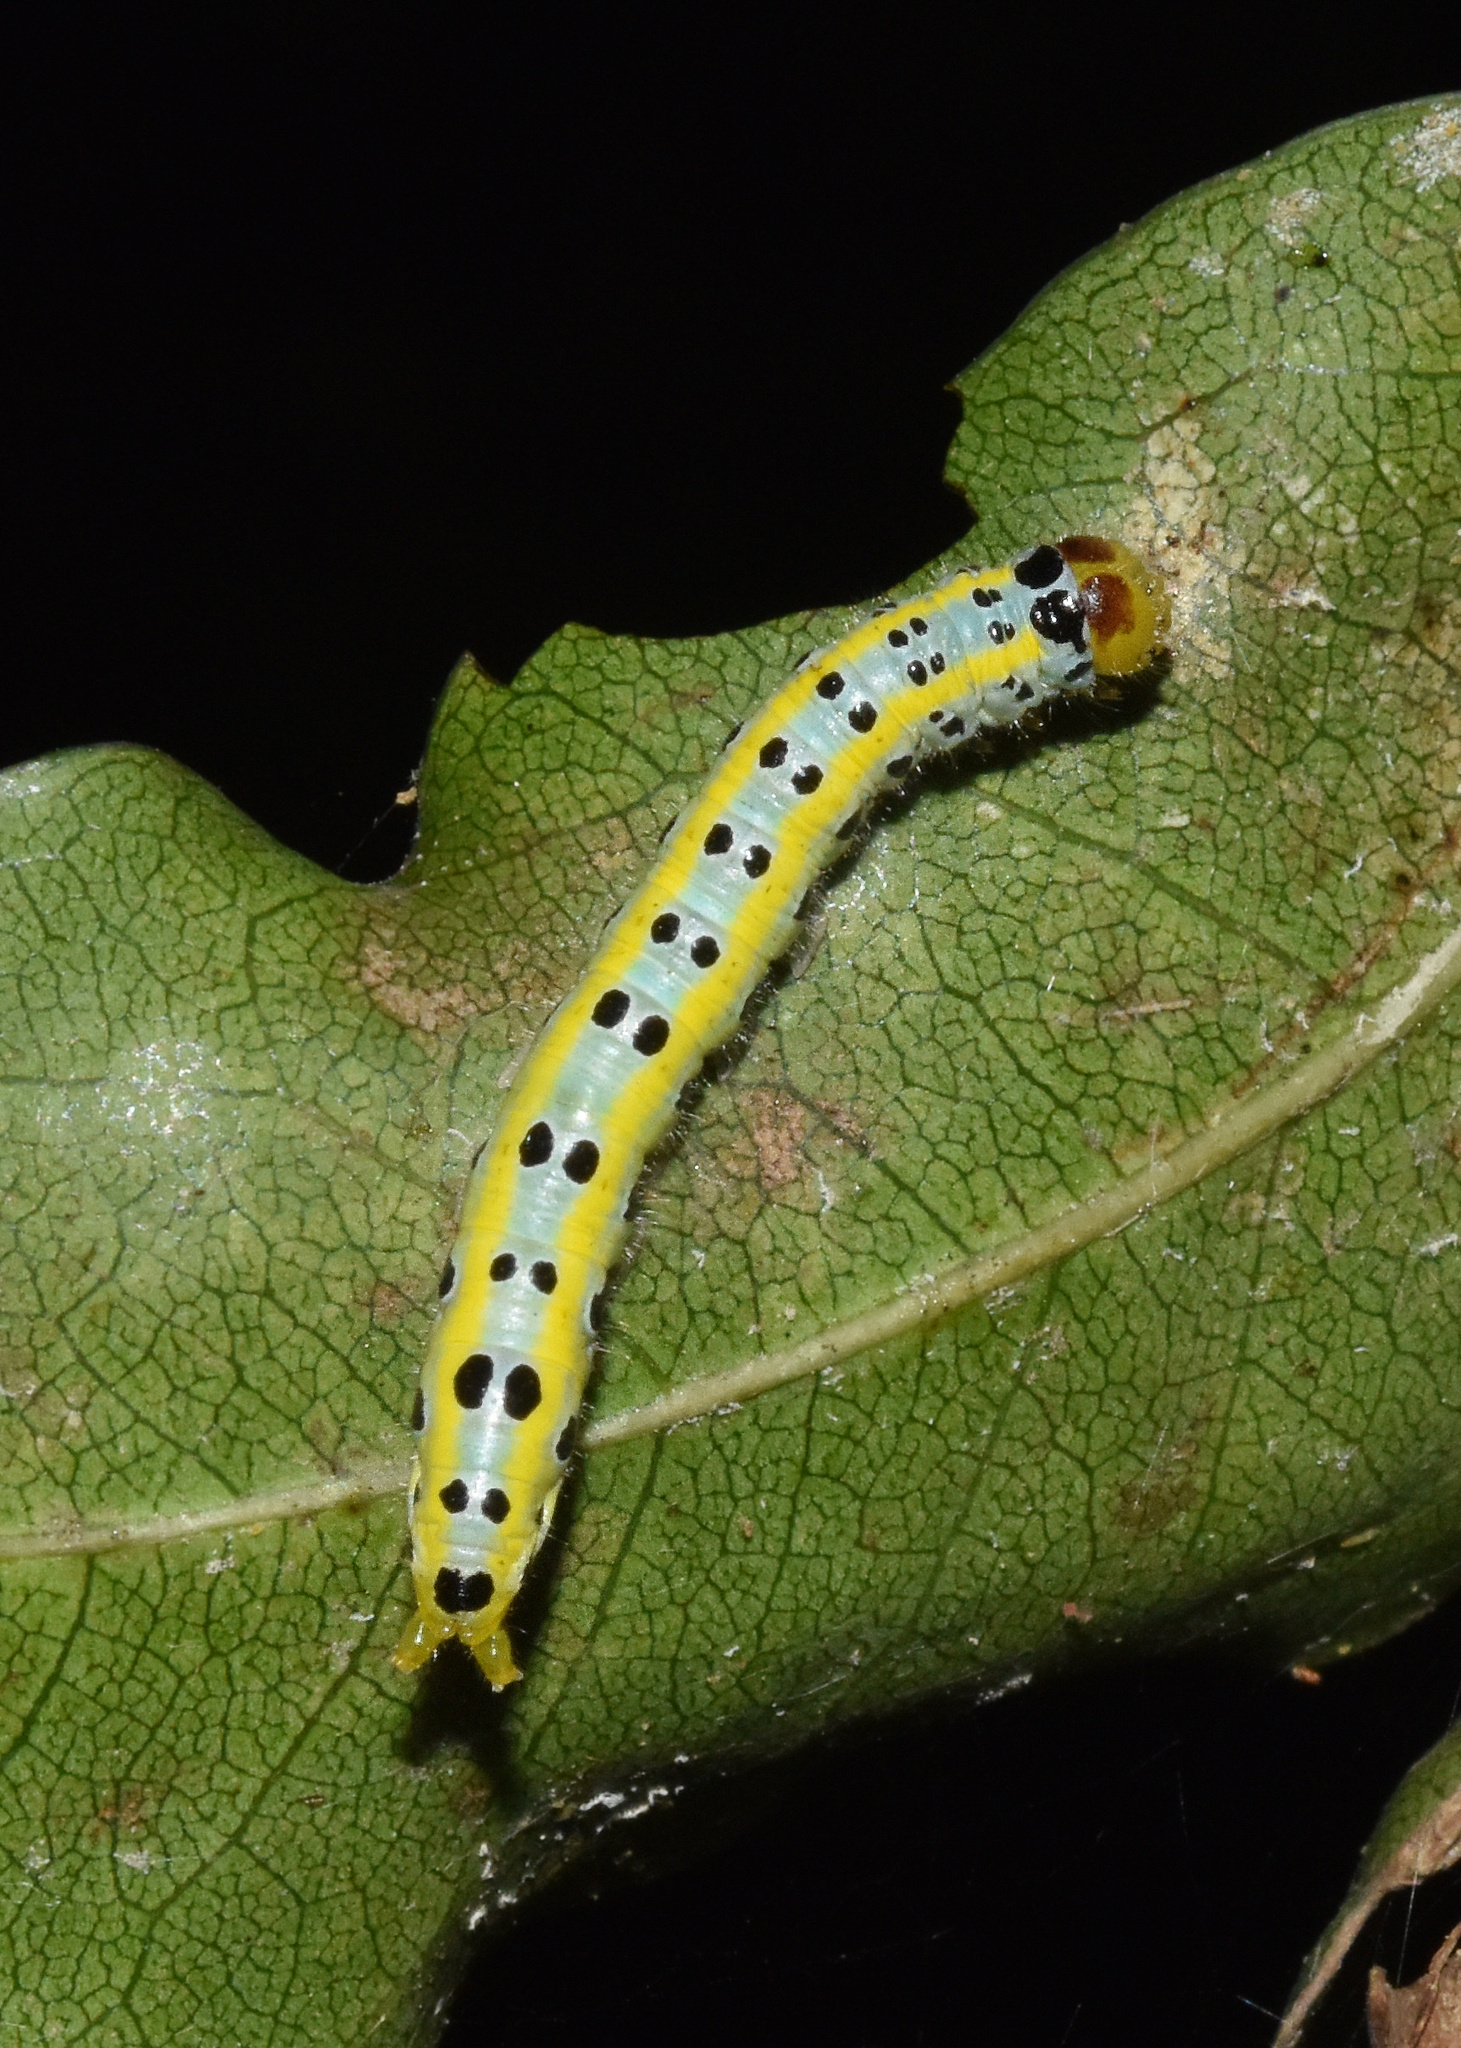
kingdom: Animalia
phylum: Arthropoda
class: Insecta
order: Lepidoptera
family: Notodontidae
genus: Rhenea
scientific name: Rhenea michii
